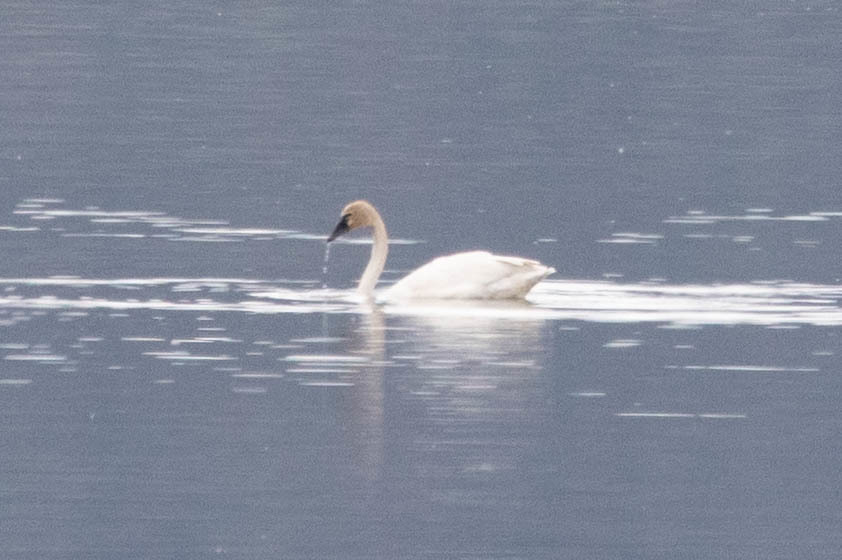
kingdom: Animalia
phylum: Chordata
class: Aves
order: Anseriformes
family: Anatidae
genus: Cygnus
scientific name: Cygnus columbianus
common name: Tundra swan
